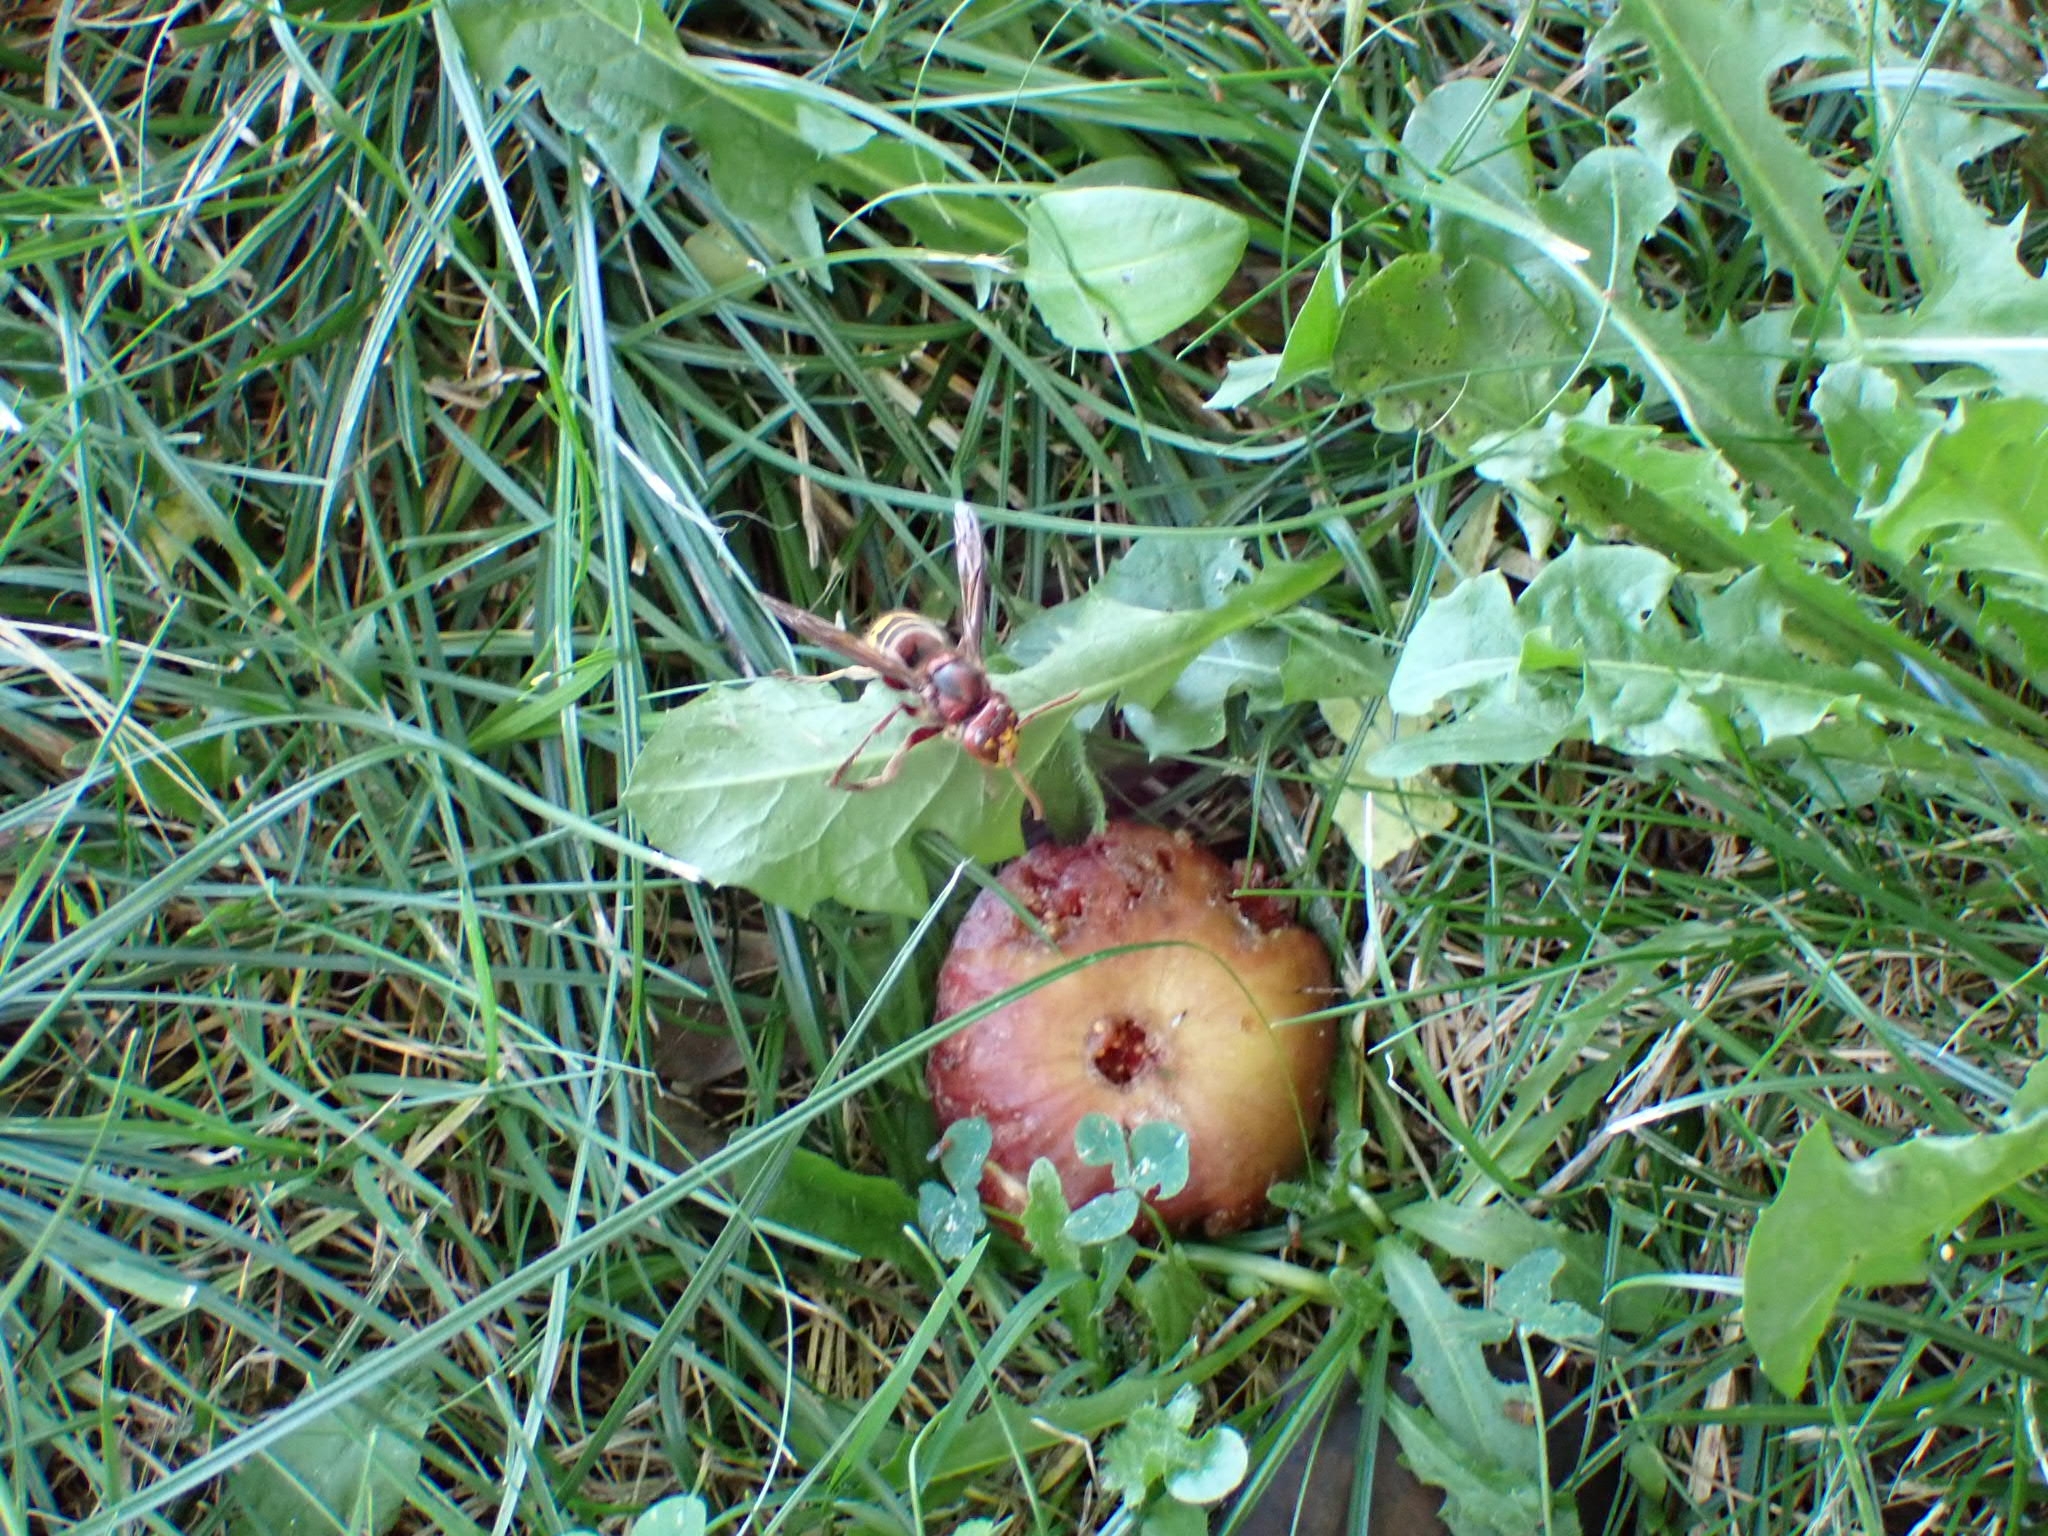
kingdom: Animalia
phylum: Arthropoda
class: Insecta
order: Hymenoptera
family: Vespidae
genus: Vespa
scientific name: Vespa crabro
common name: Hornet
